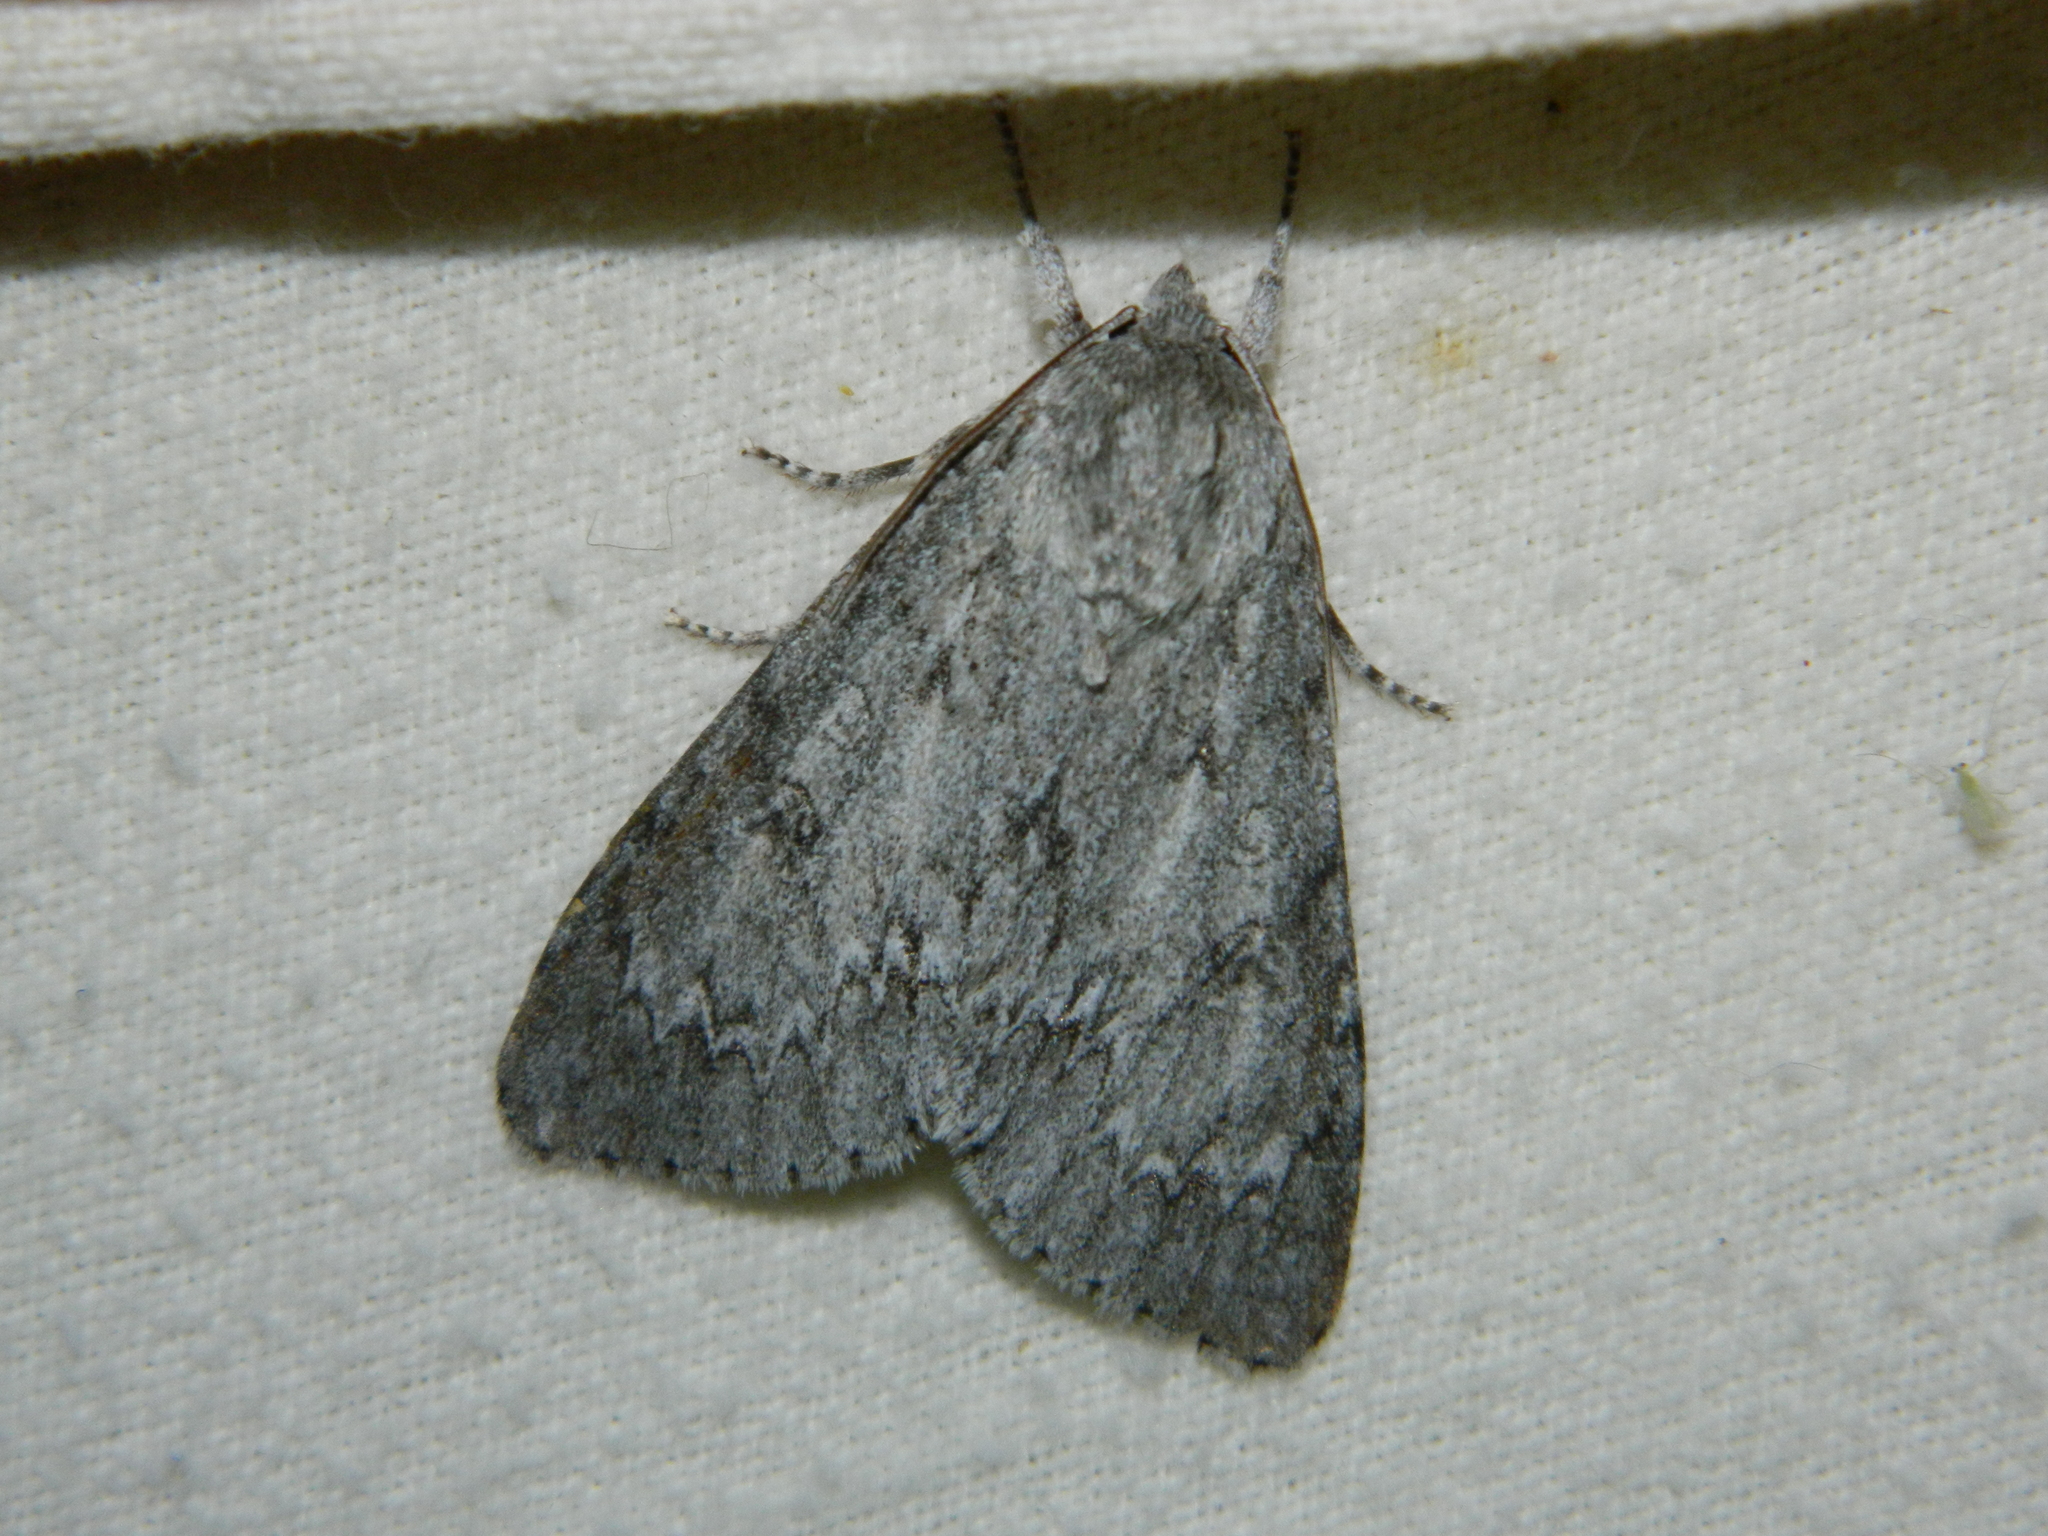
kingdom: Animalia
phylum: Arthropoda
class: Insecta
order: Lepidoptera
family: Noctuidae
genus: Acronicta
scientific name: Acronicta americana
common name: American dagger
